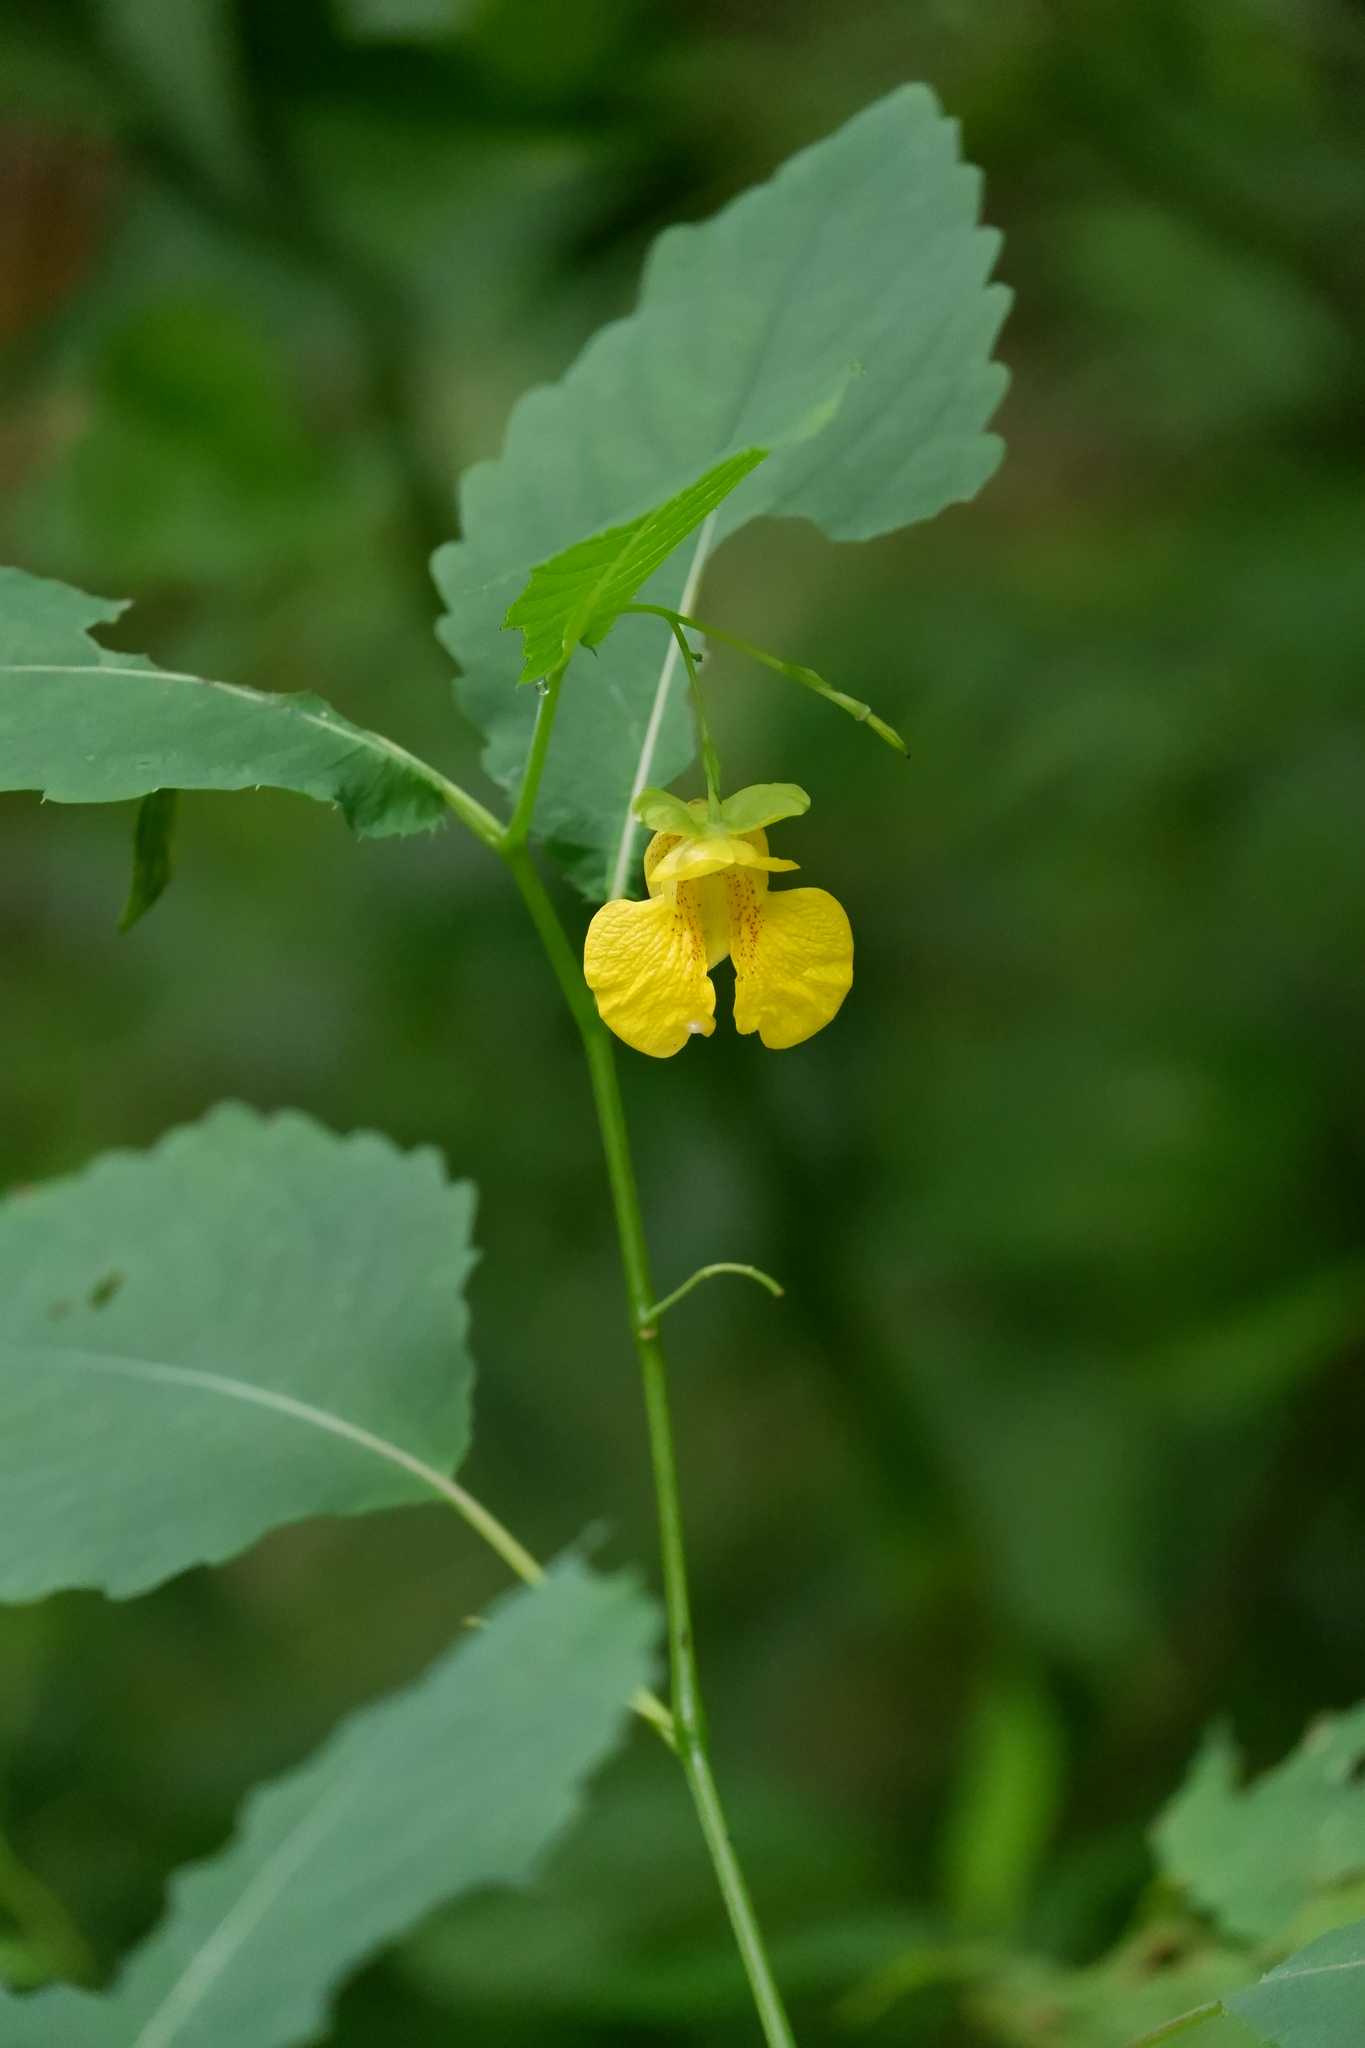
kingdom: Plantae
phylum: Tracheophyta
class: Magnoliopsida
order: Ericales
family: Balsaminaceae
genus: Impatiens
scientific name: Impatiens pallida
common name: Pale snapweed
